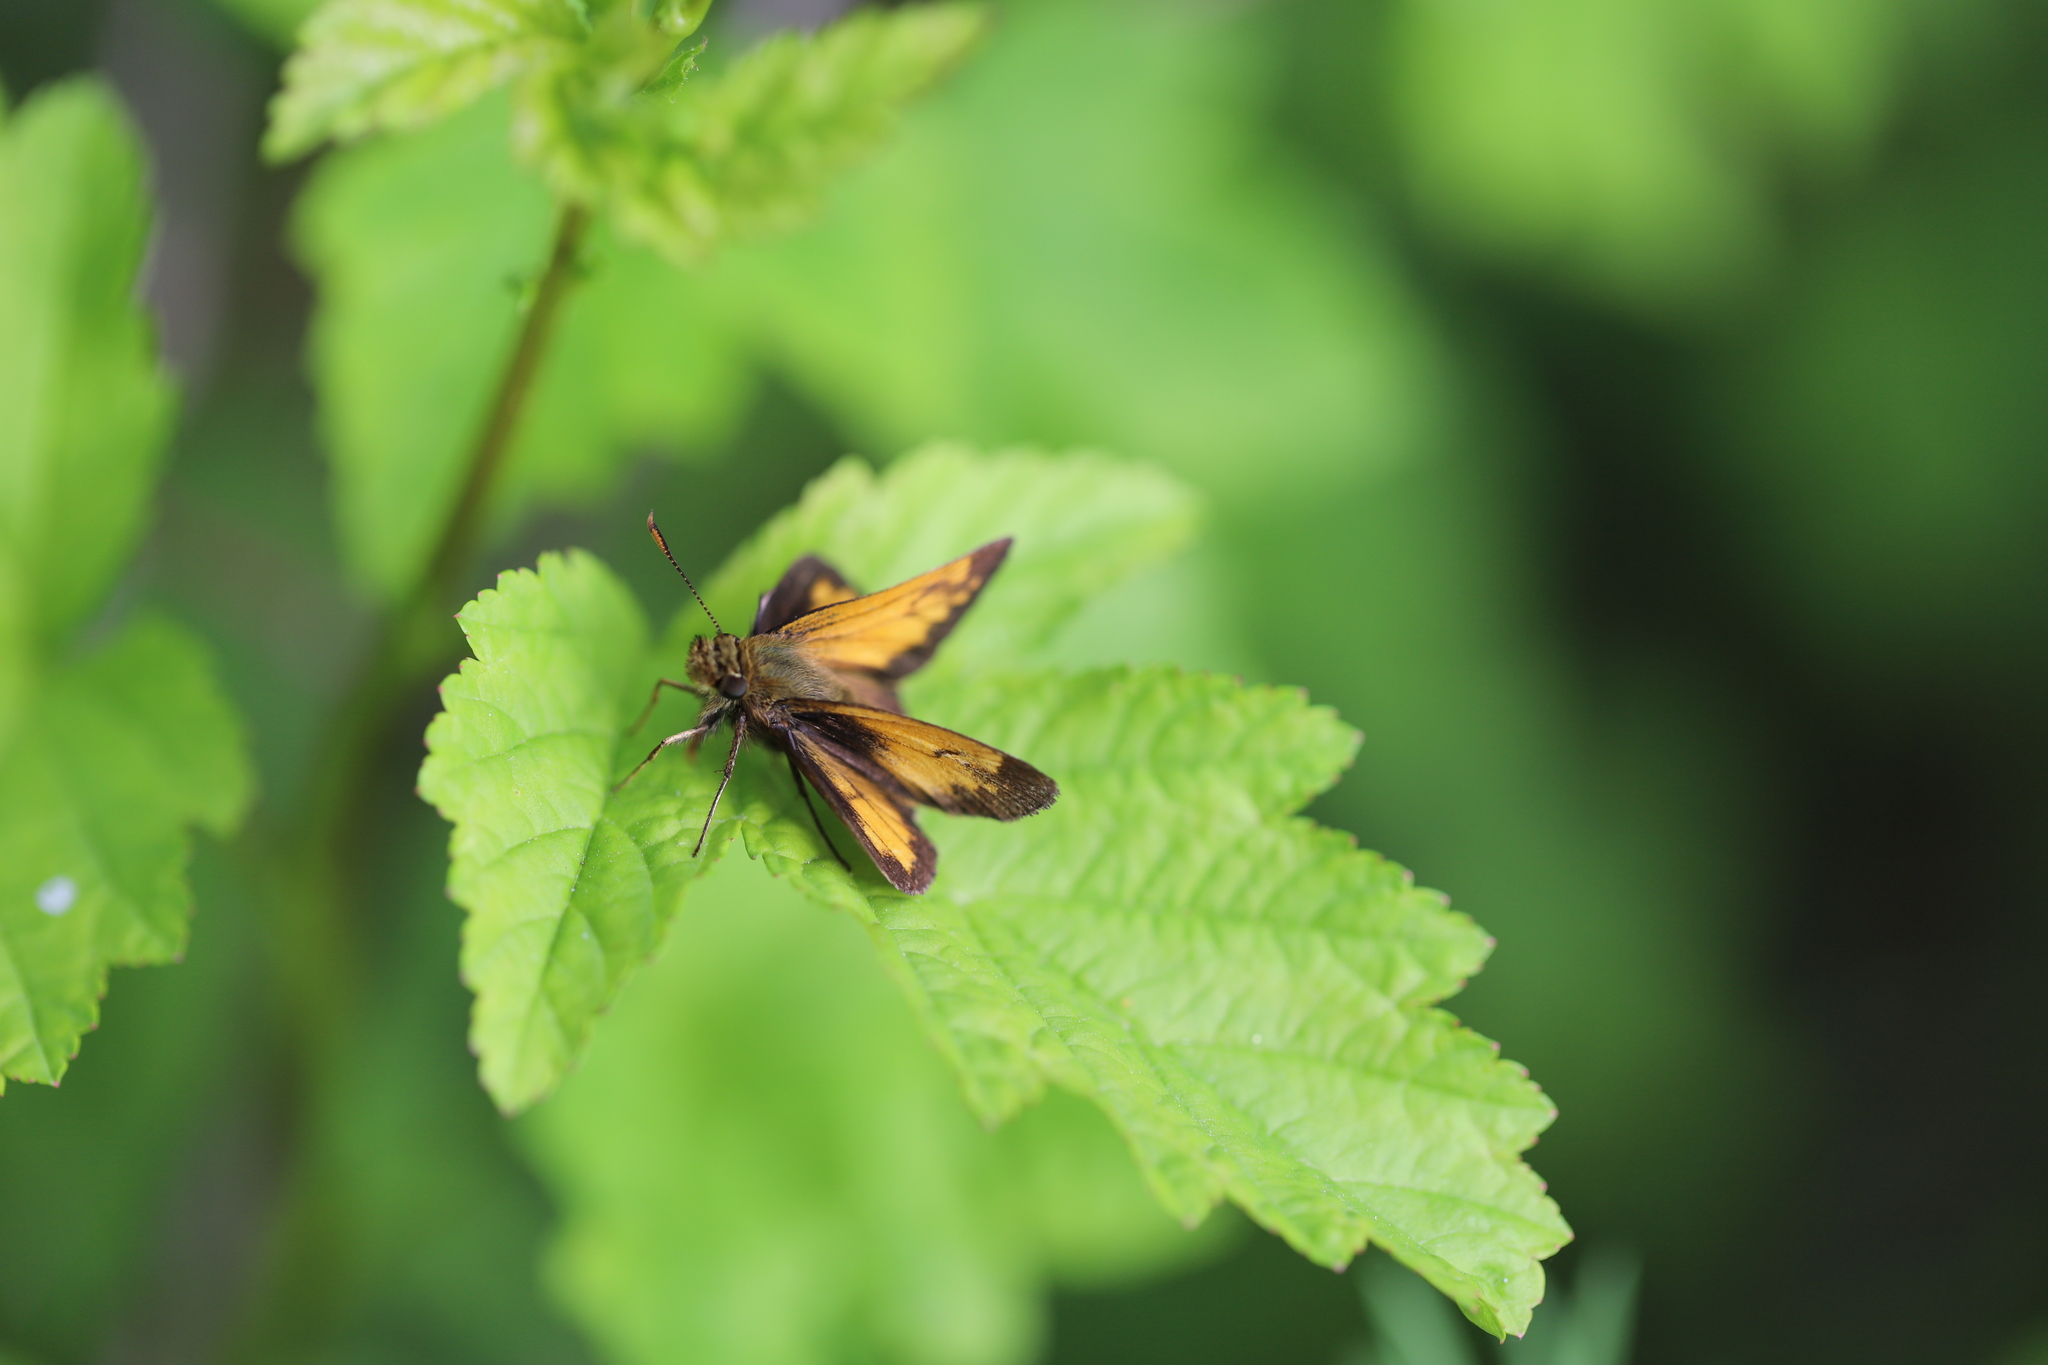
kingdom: Animalia
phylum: Arthropoda
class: Insecta
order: Lepidoptera
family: Hesperiidae
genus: Lon
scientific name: Lon hobomok
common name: Hobomok skipper
